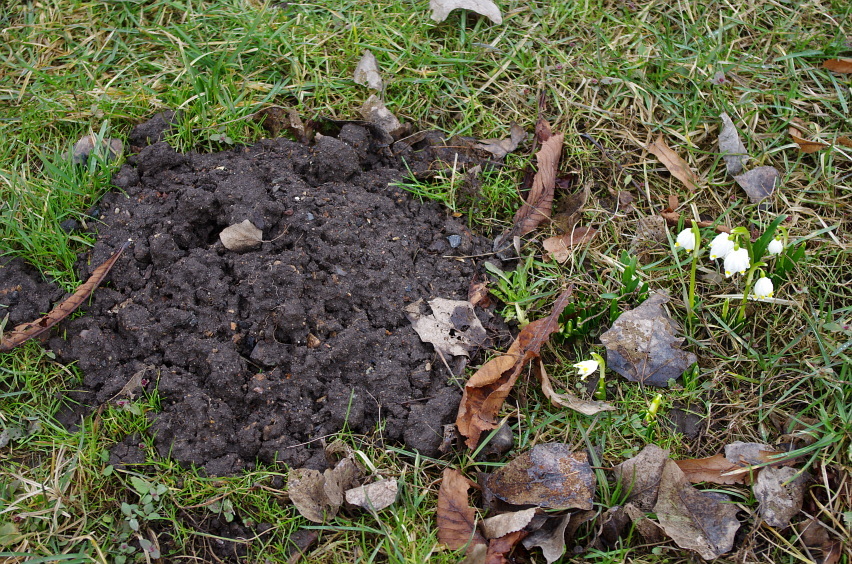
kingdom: Animalia
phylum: Chordata
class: Mammalia
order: Soricomorpha
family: Talpidae
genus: Talpa
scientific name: Talpa europaea
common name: European mole
